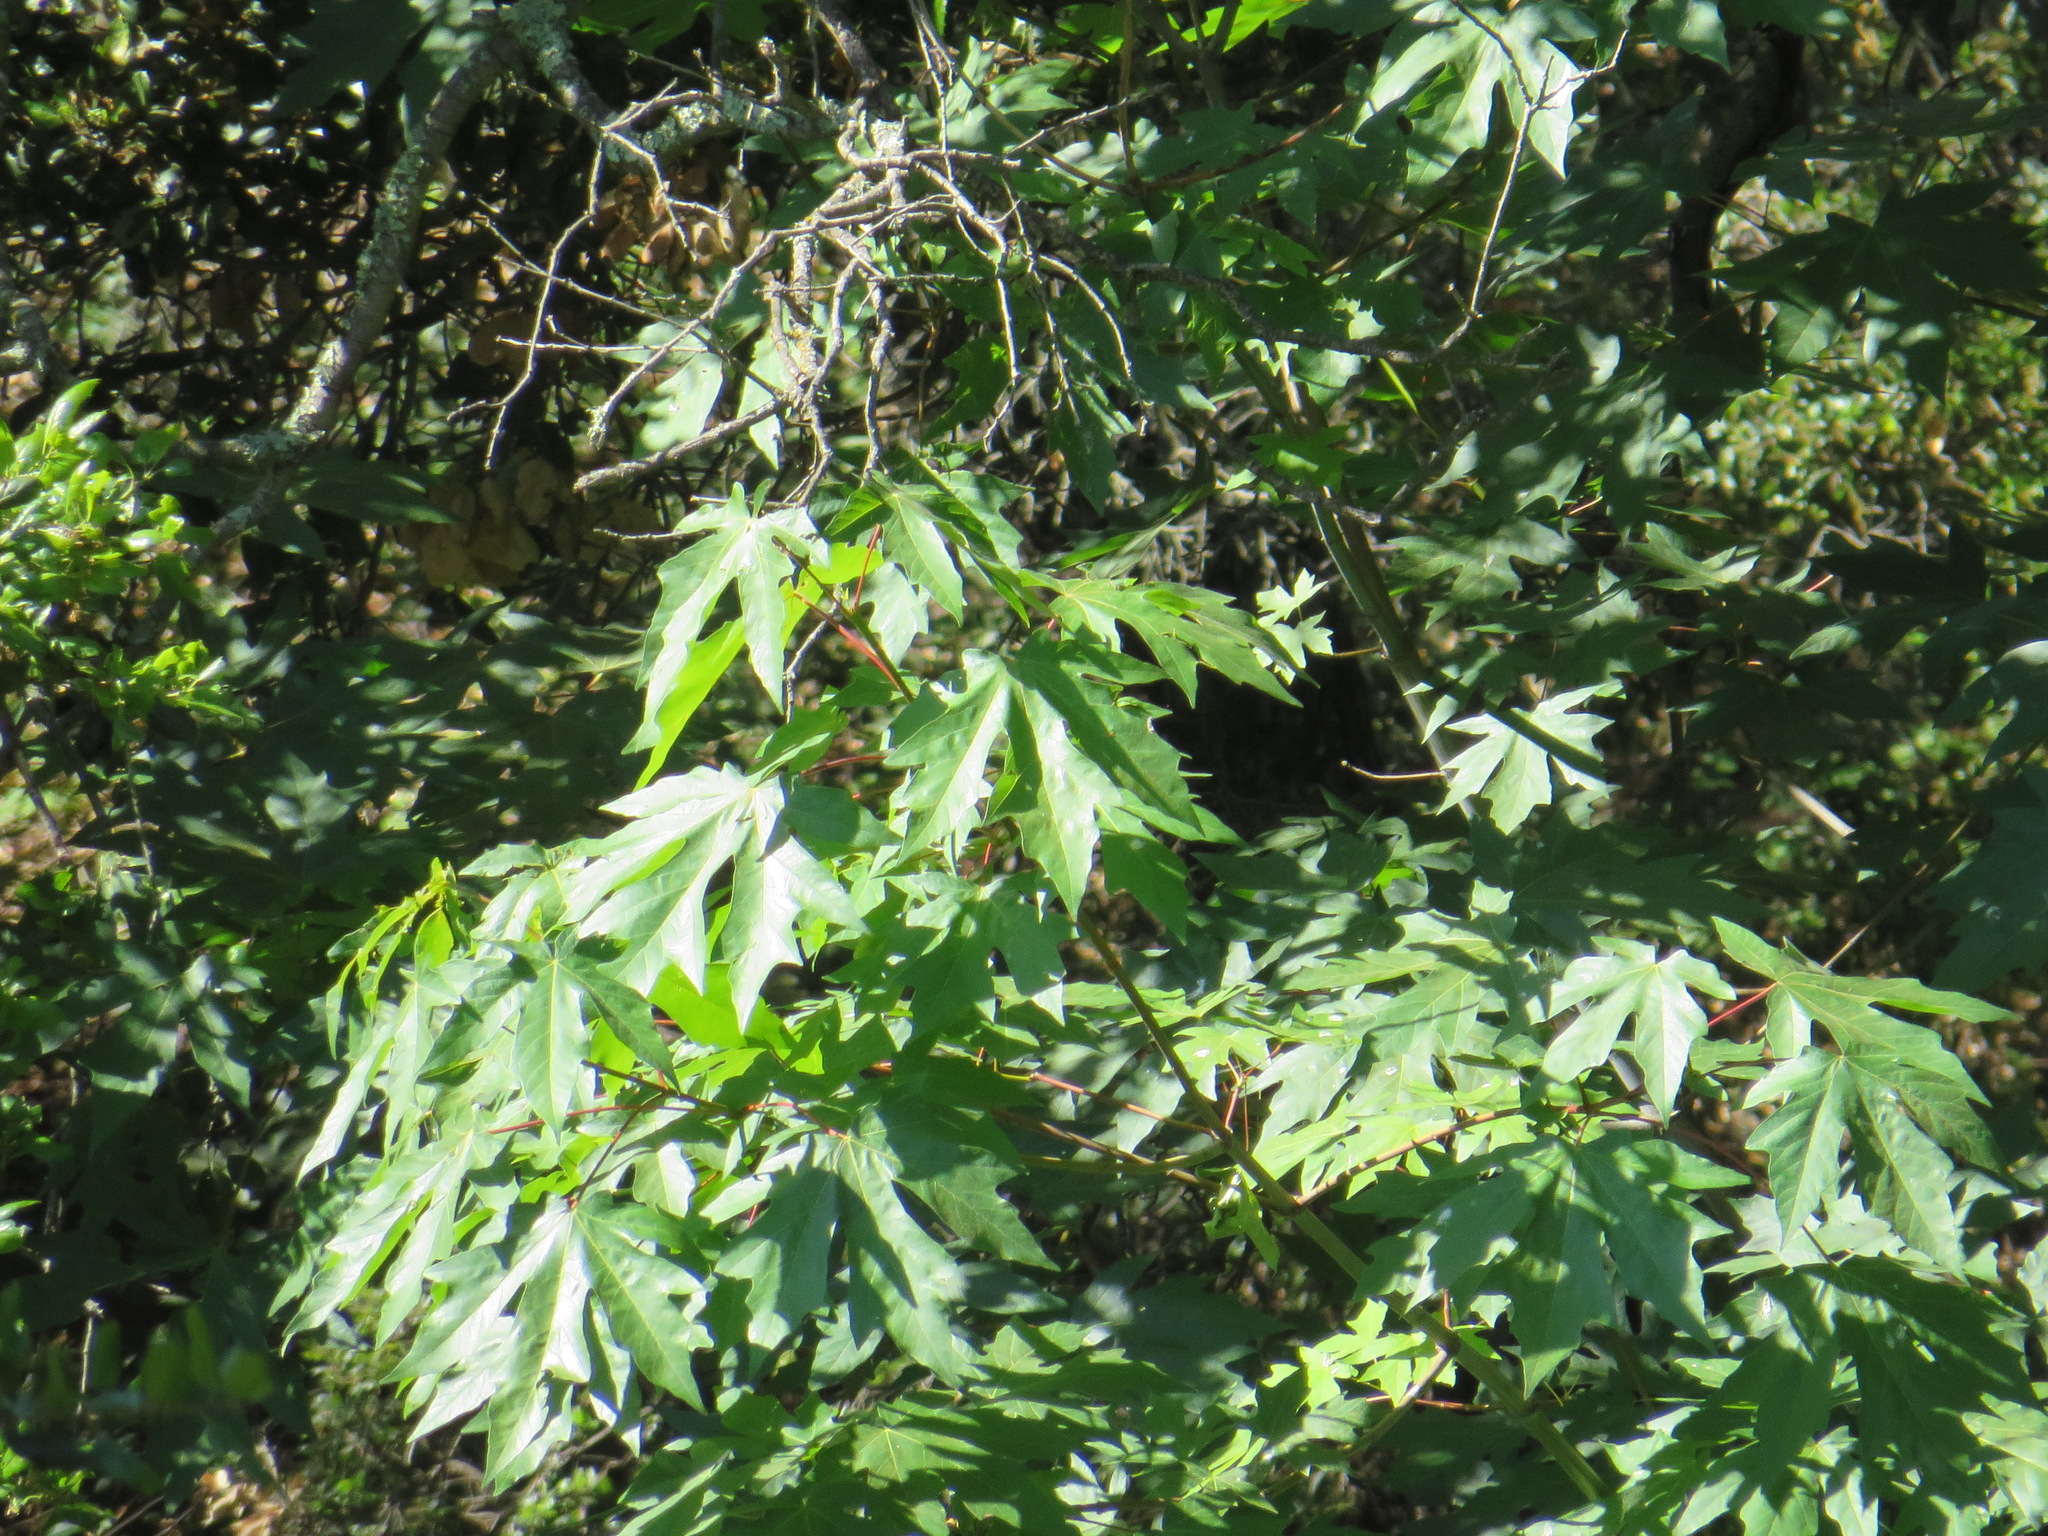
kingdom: Plantae
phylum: Tracheophyta
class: Magnoliopsida
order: Sapindales
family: Sapindaceae
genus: Acer
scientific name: Acer macrophyllum
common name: Oregon maple
